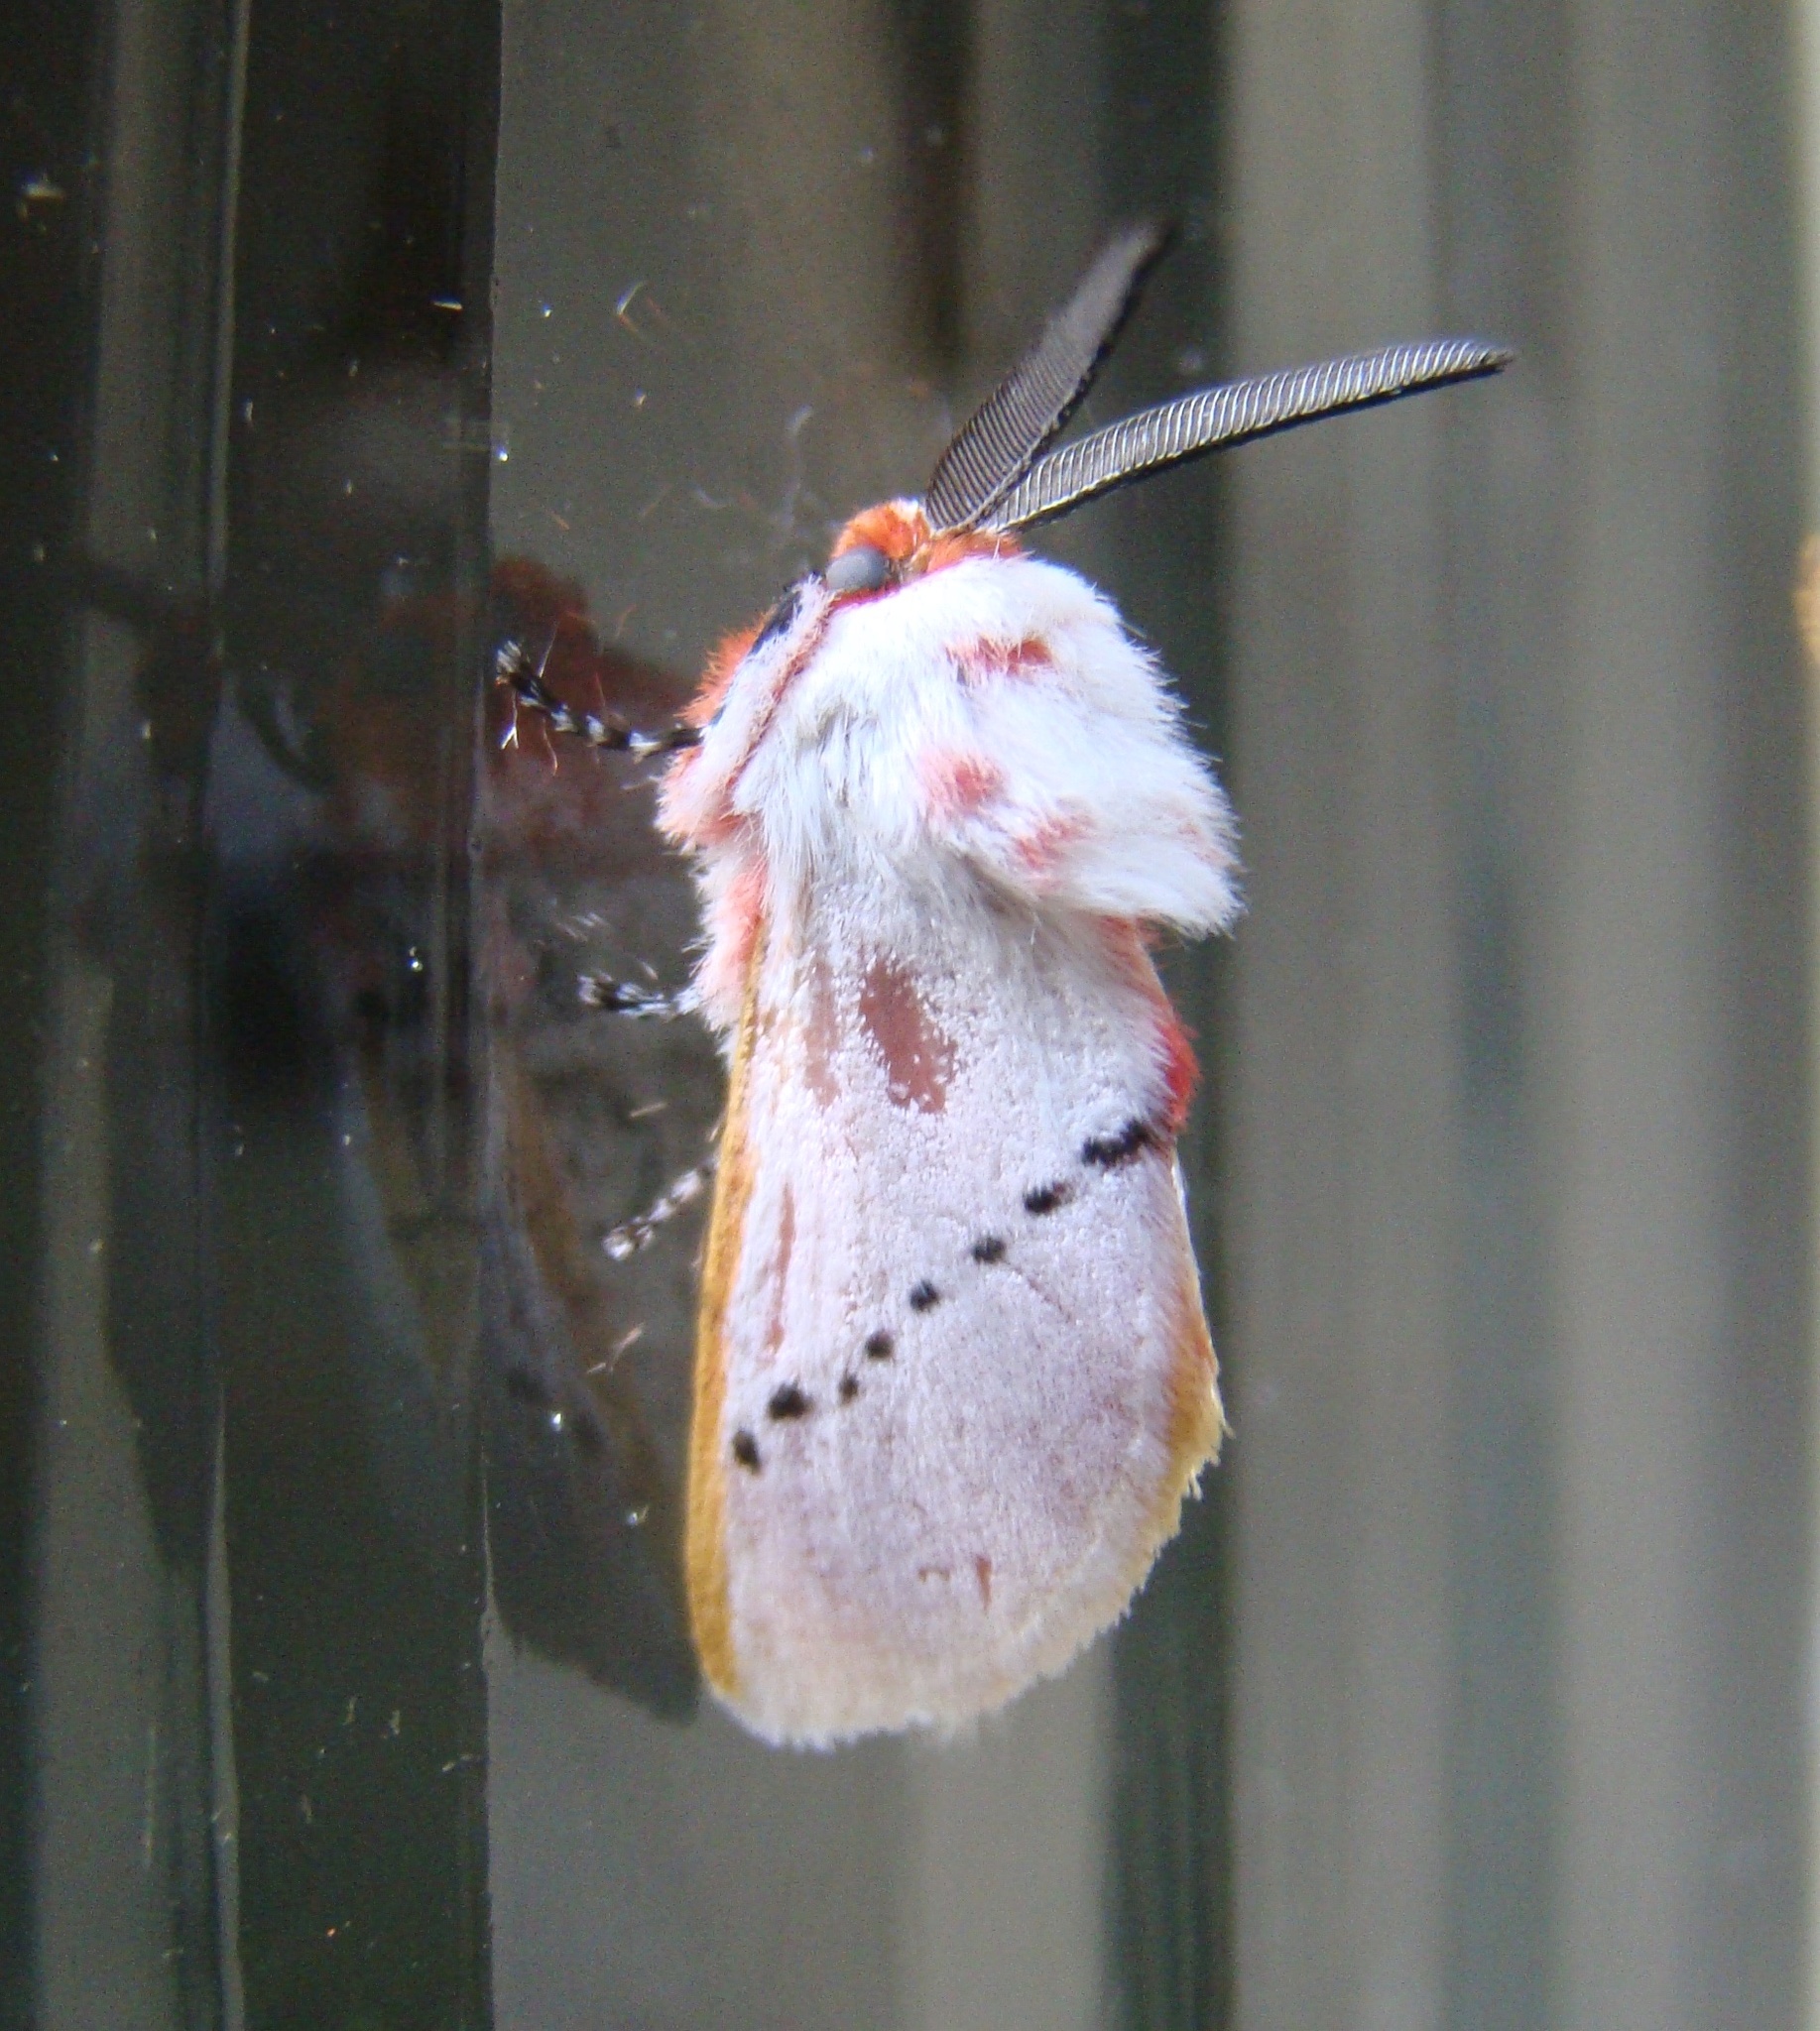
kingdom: Animalia
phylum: Arthropoda
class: Insecta
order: Lepidoptera
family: Megalopygidae
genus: Trosia
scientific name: Trosia misda
